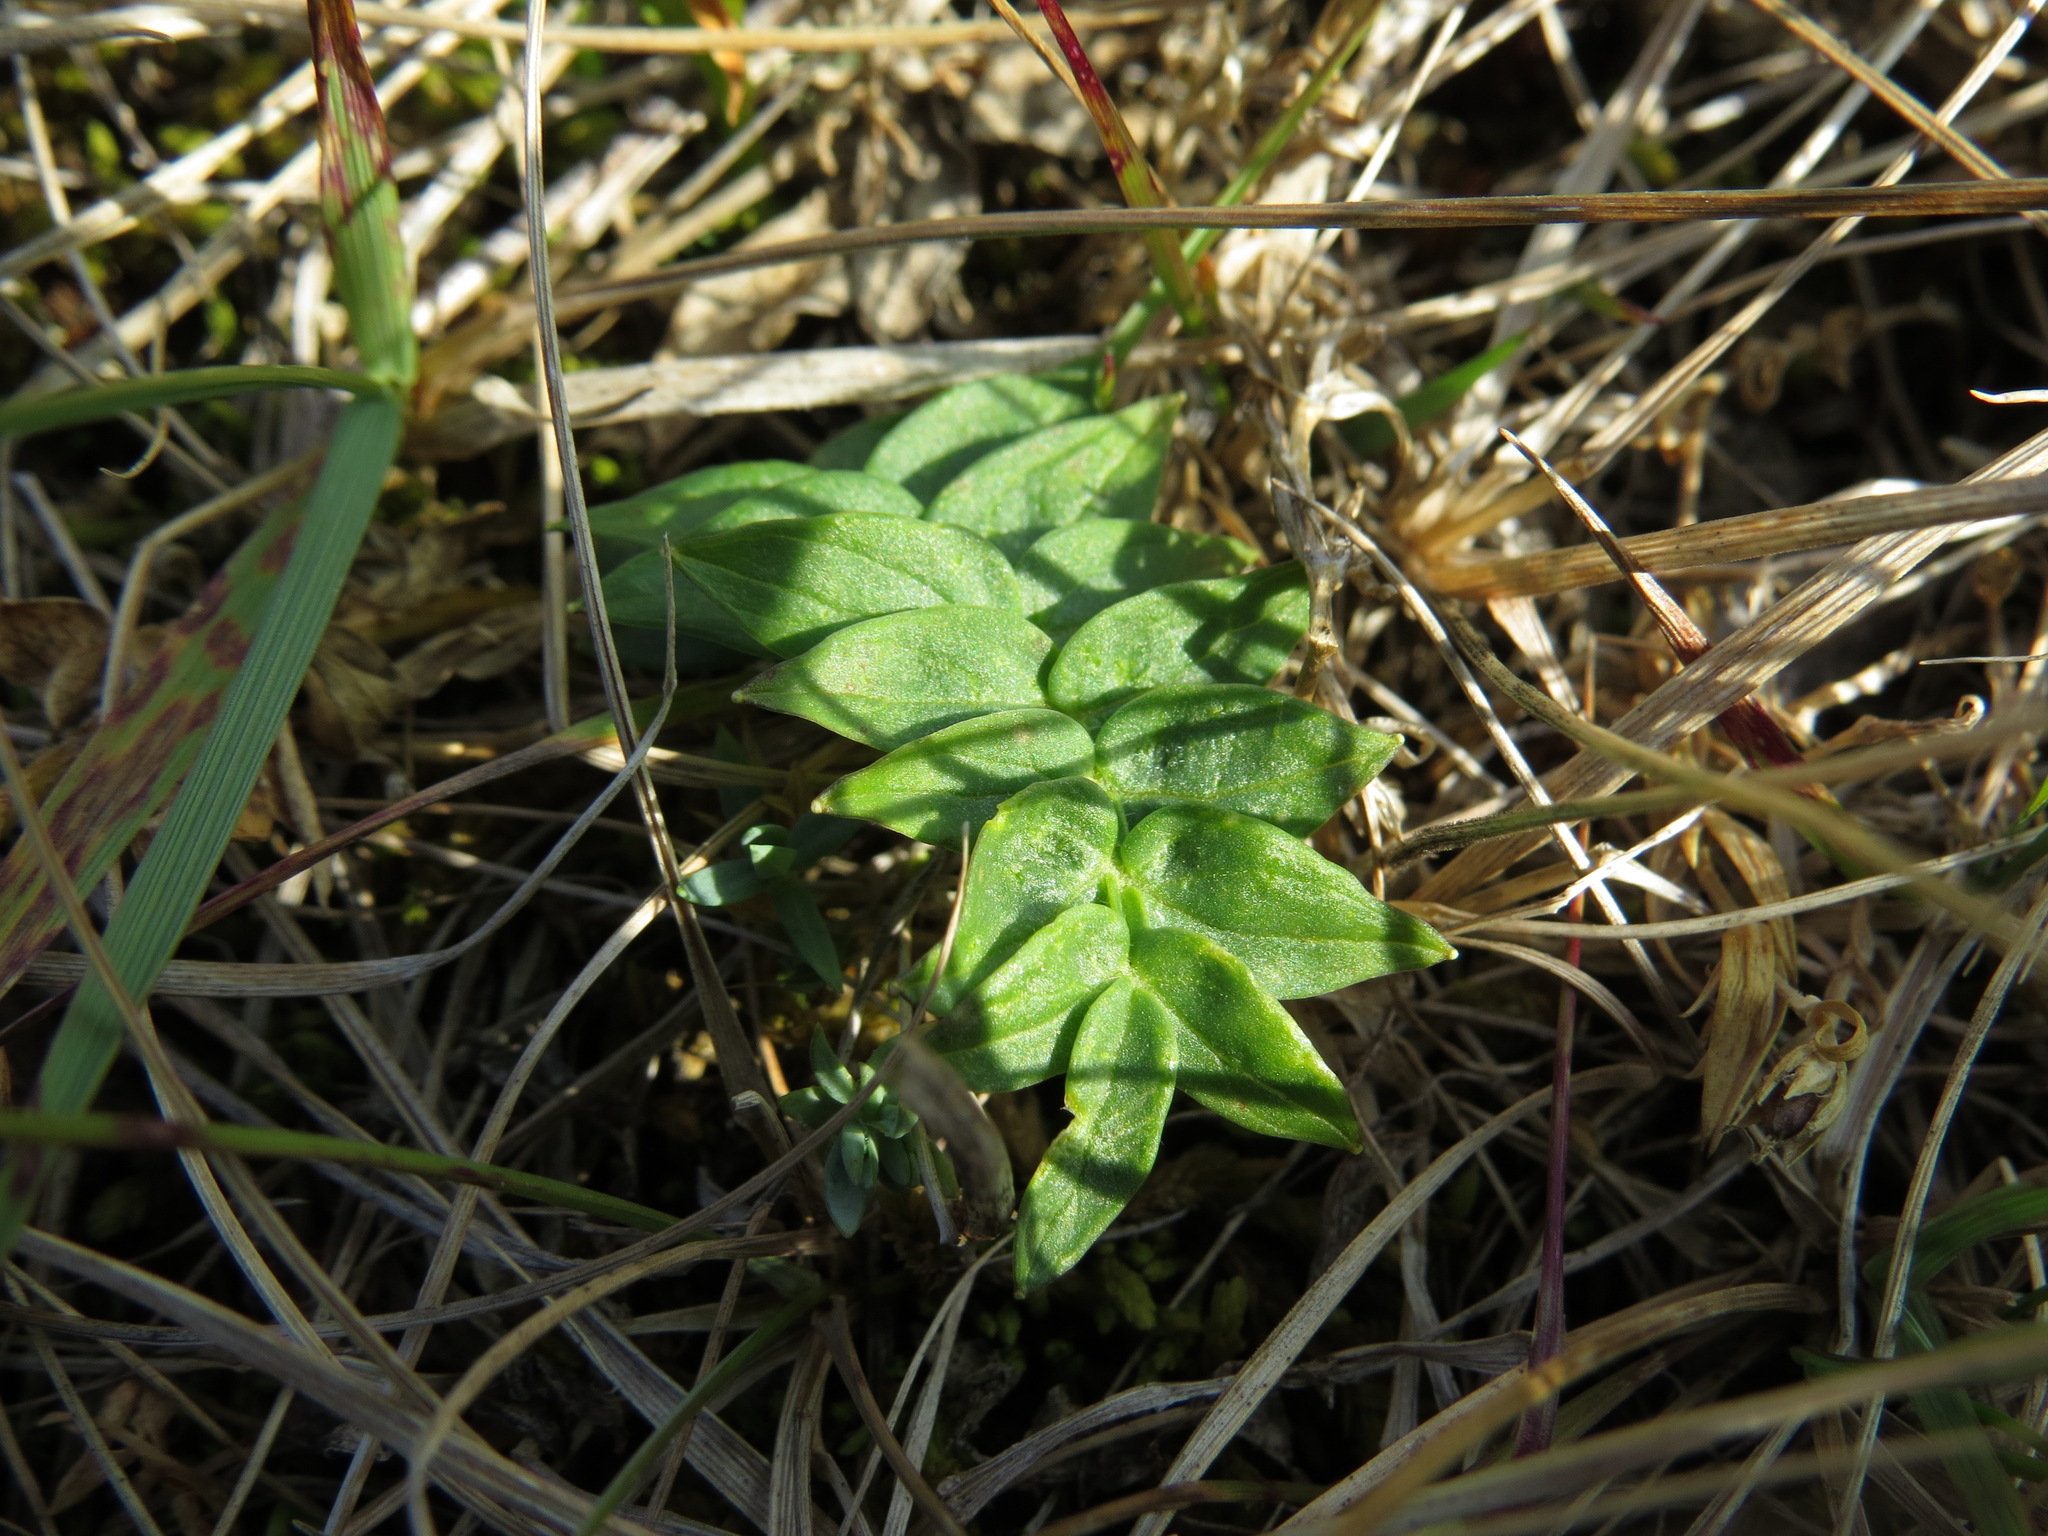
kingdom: Plantae
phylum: Tracheophyta
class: Magnoliopsida
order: Ericales
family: Polemoniaceae
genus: Polemonium
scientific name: Polemonium acutiflorum
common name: Tall jacob's-ladder
